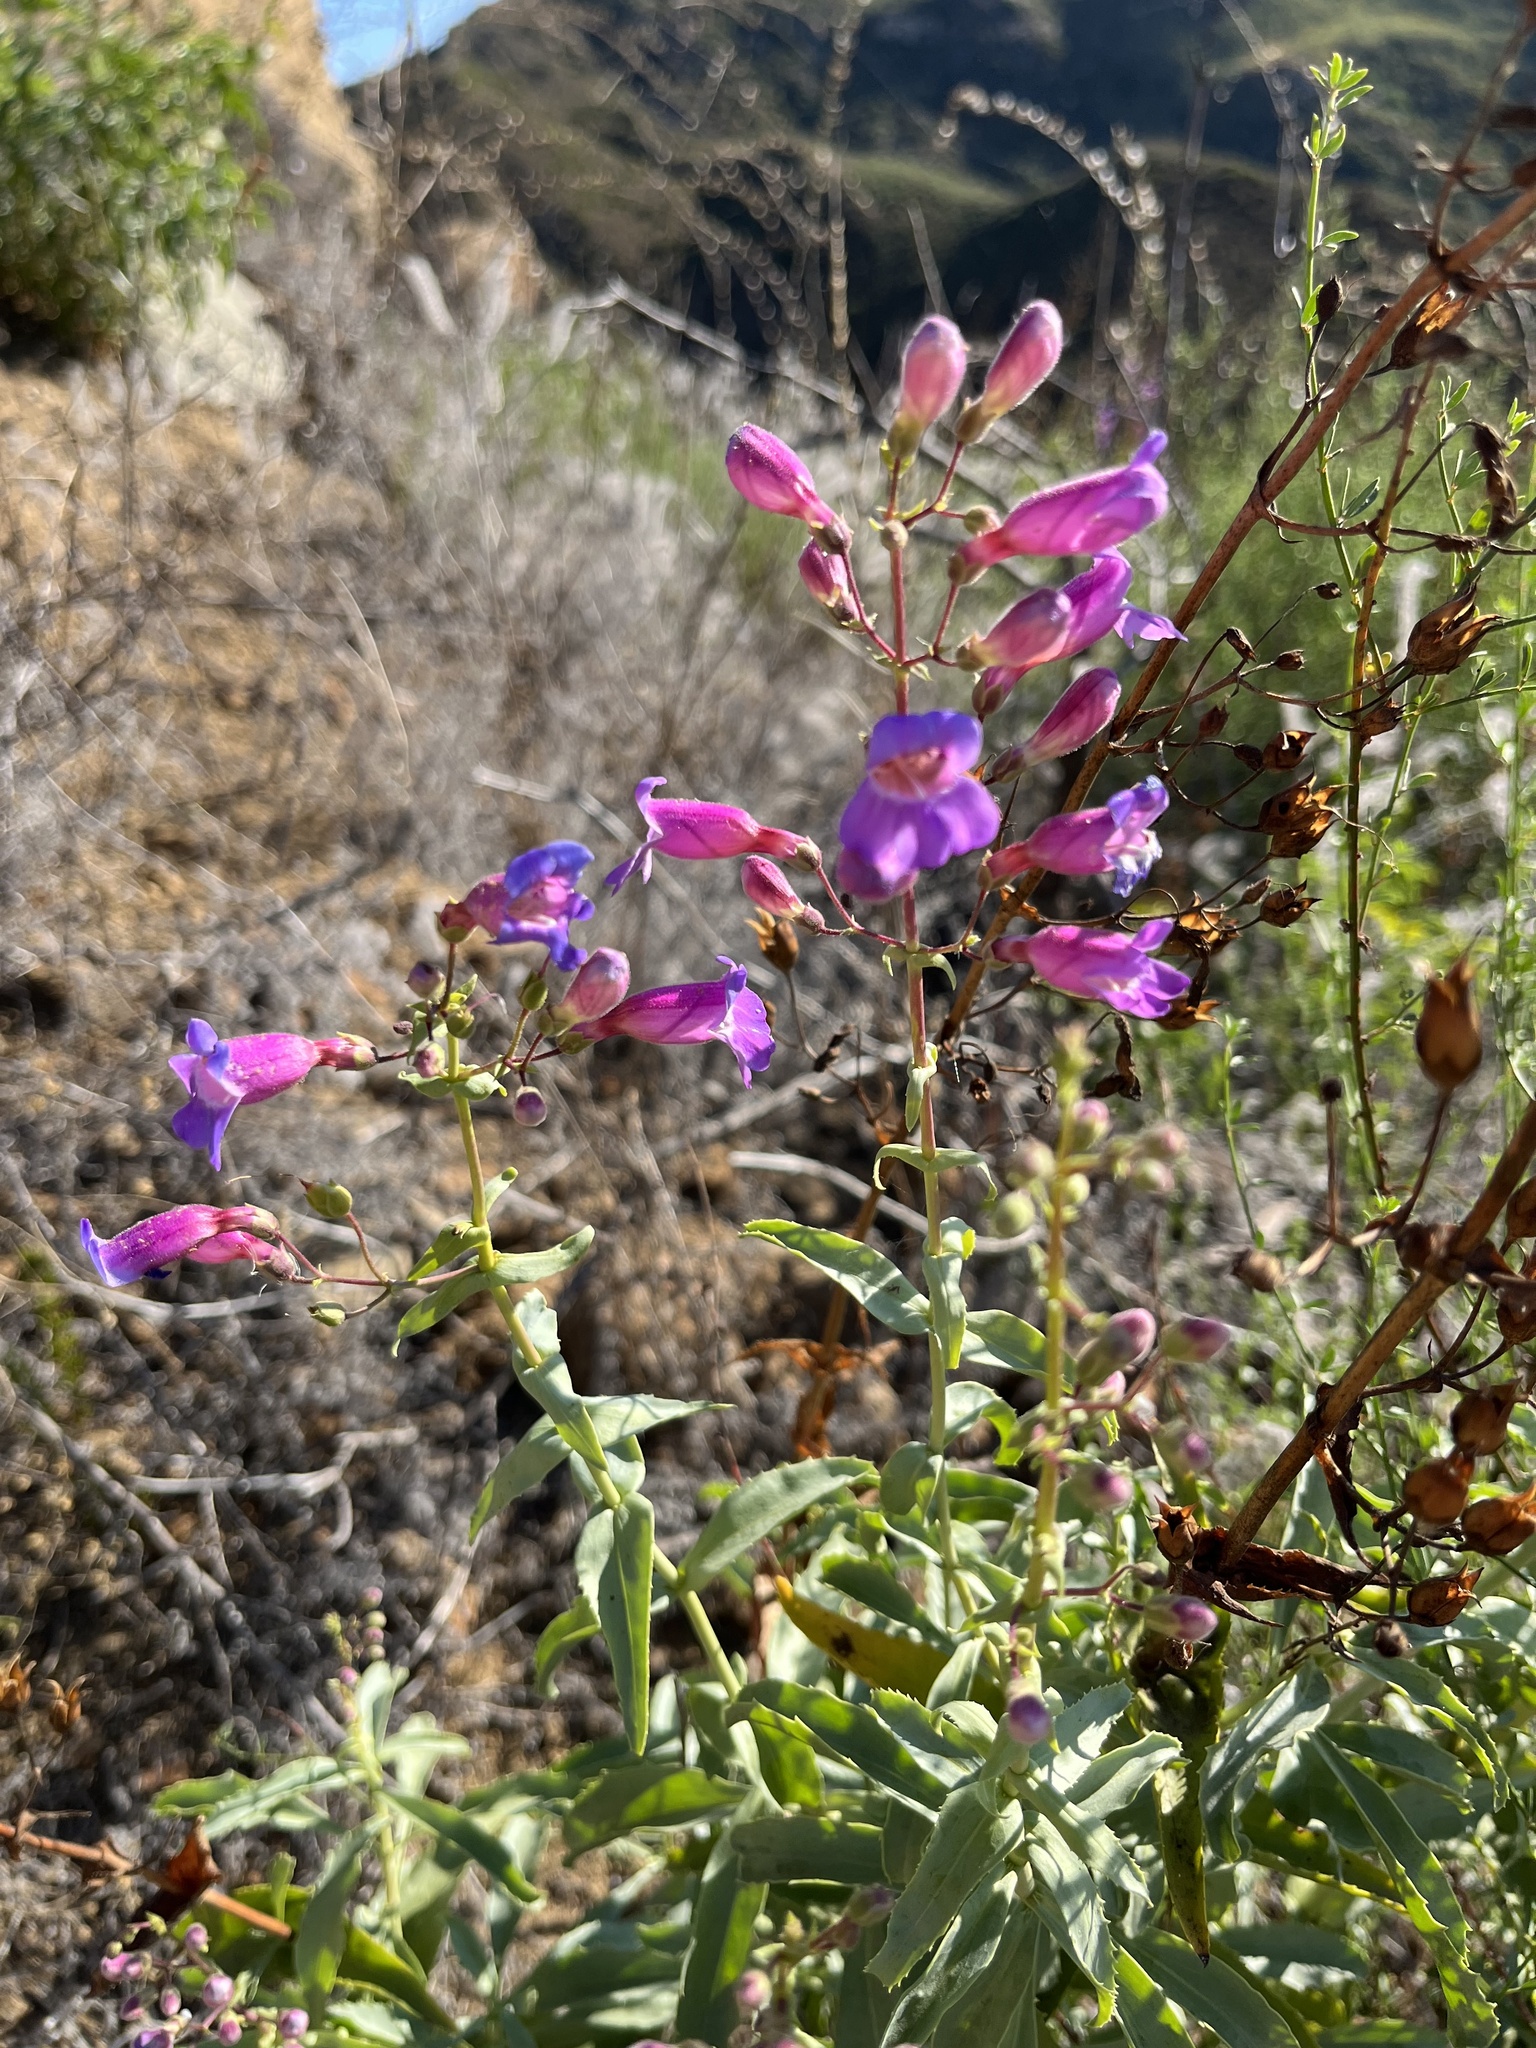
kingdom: Plantae
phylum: Tracheophyta
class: Magnoliopsida
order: Lamiales
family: Plantaginaceae
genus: Penstemon
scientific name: Penstemon spectabilis
